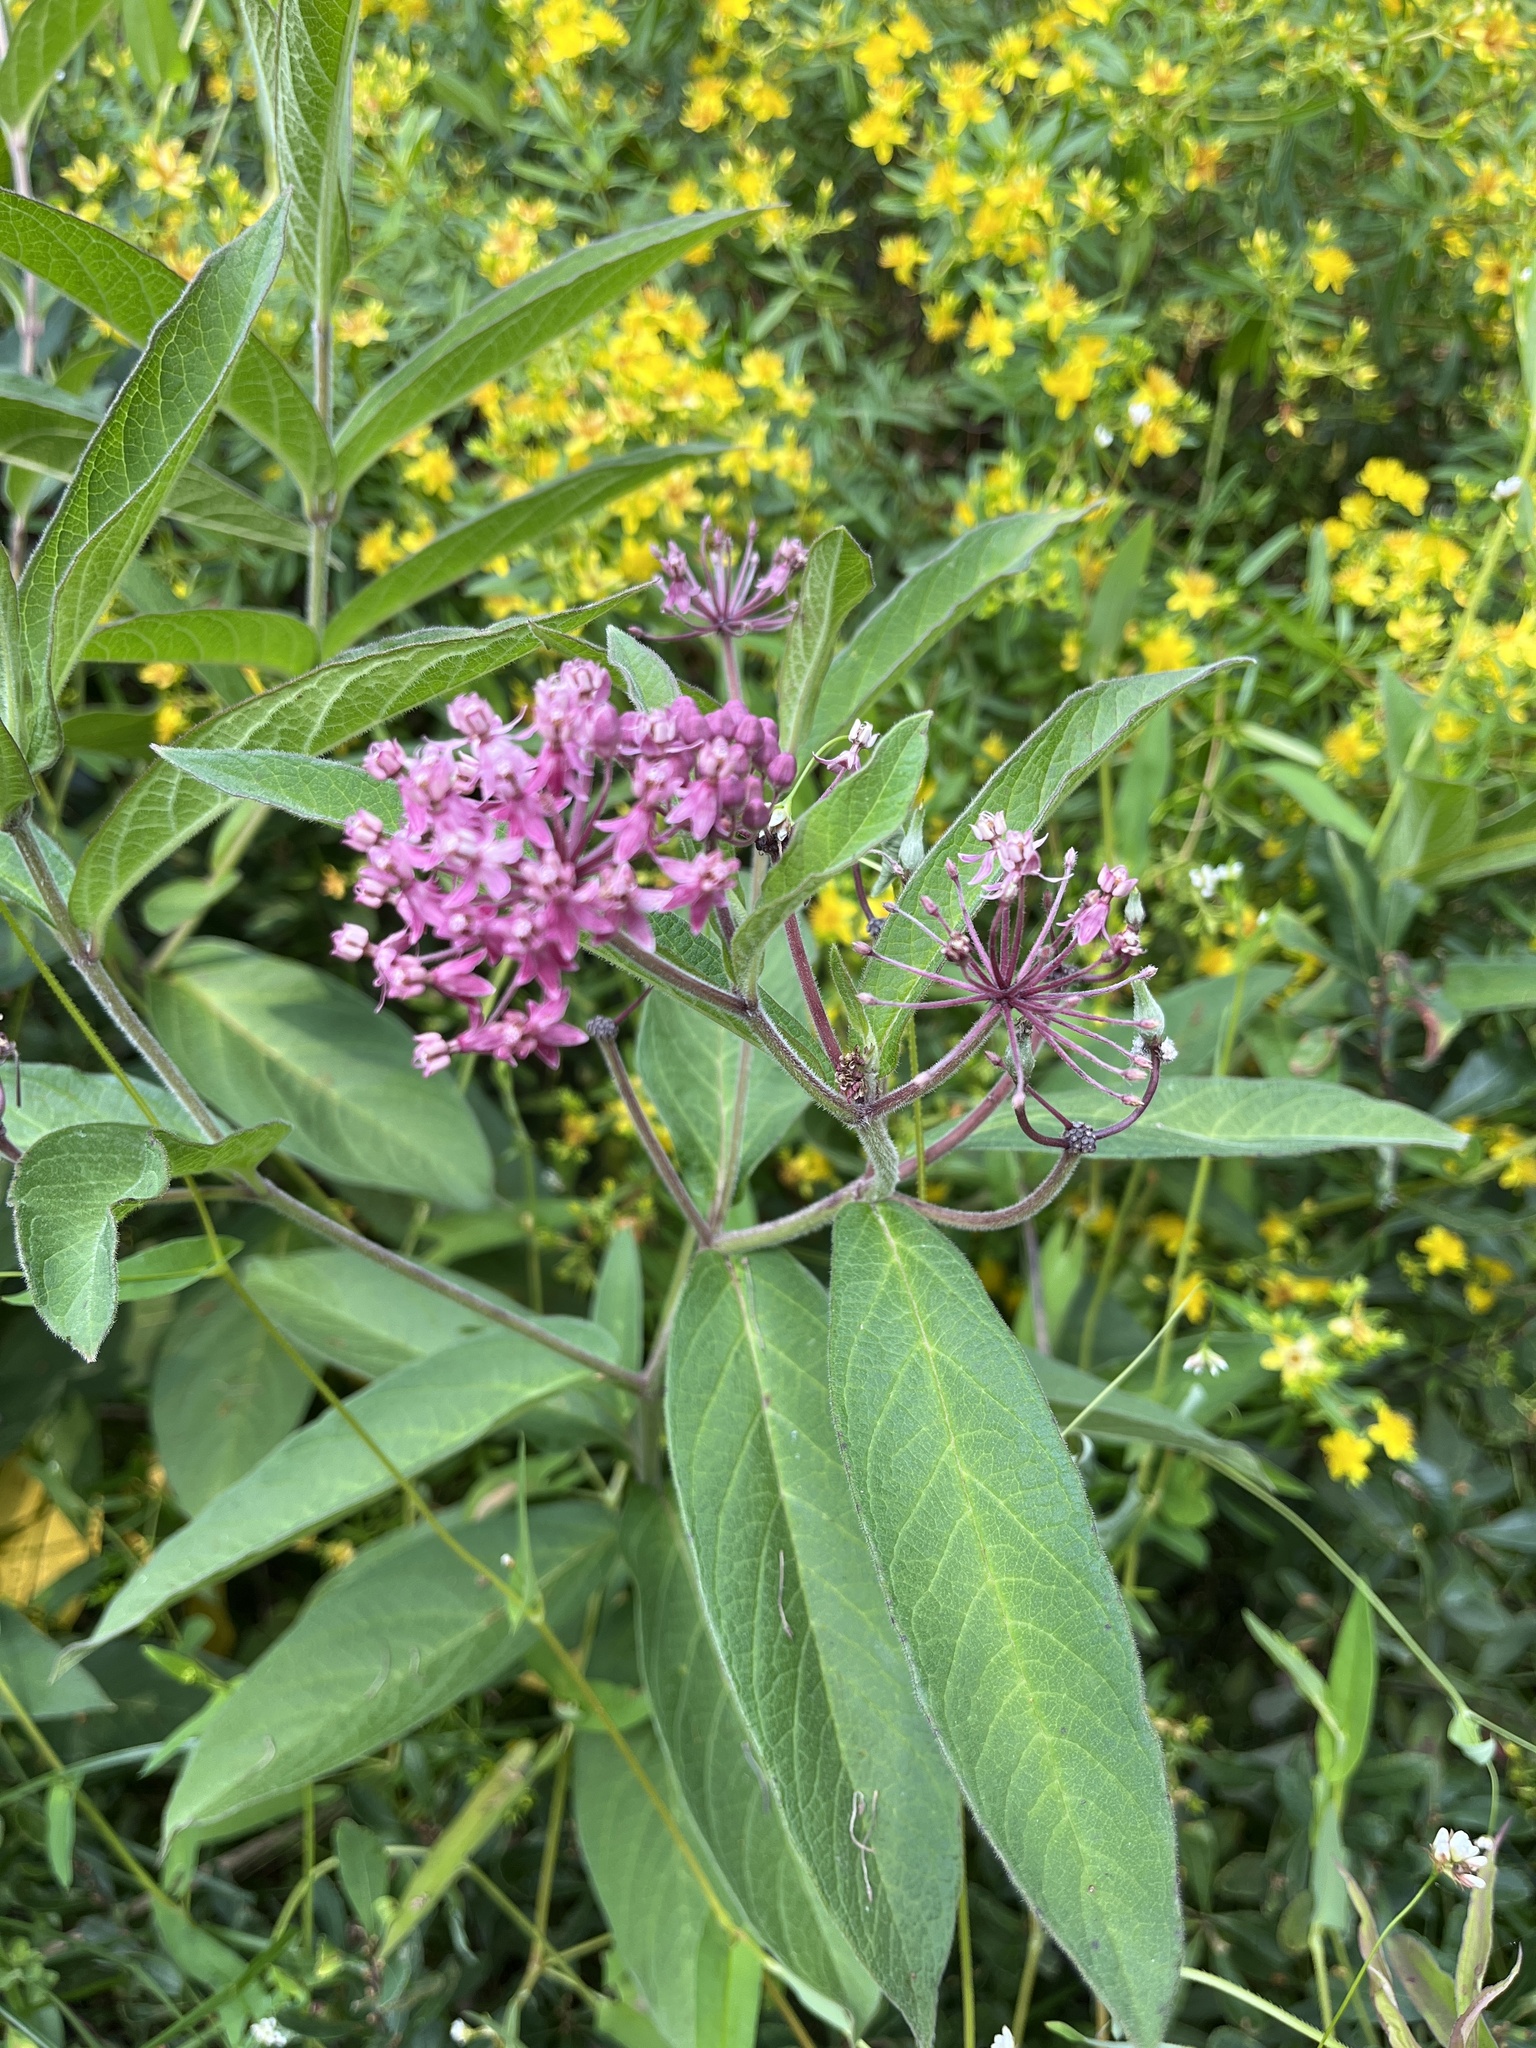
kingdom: Plantae
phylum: Tracheophyta
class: Magnoliopsida
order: Gentianales
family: Apocynaceae
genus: Asclepias
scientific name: Asclepias incarnata
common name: Swamp milkweed
